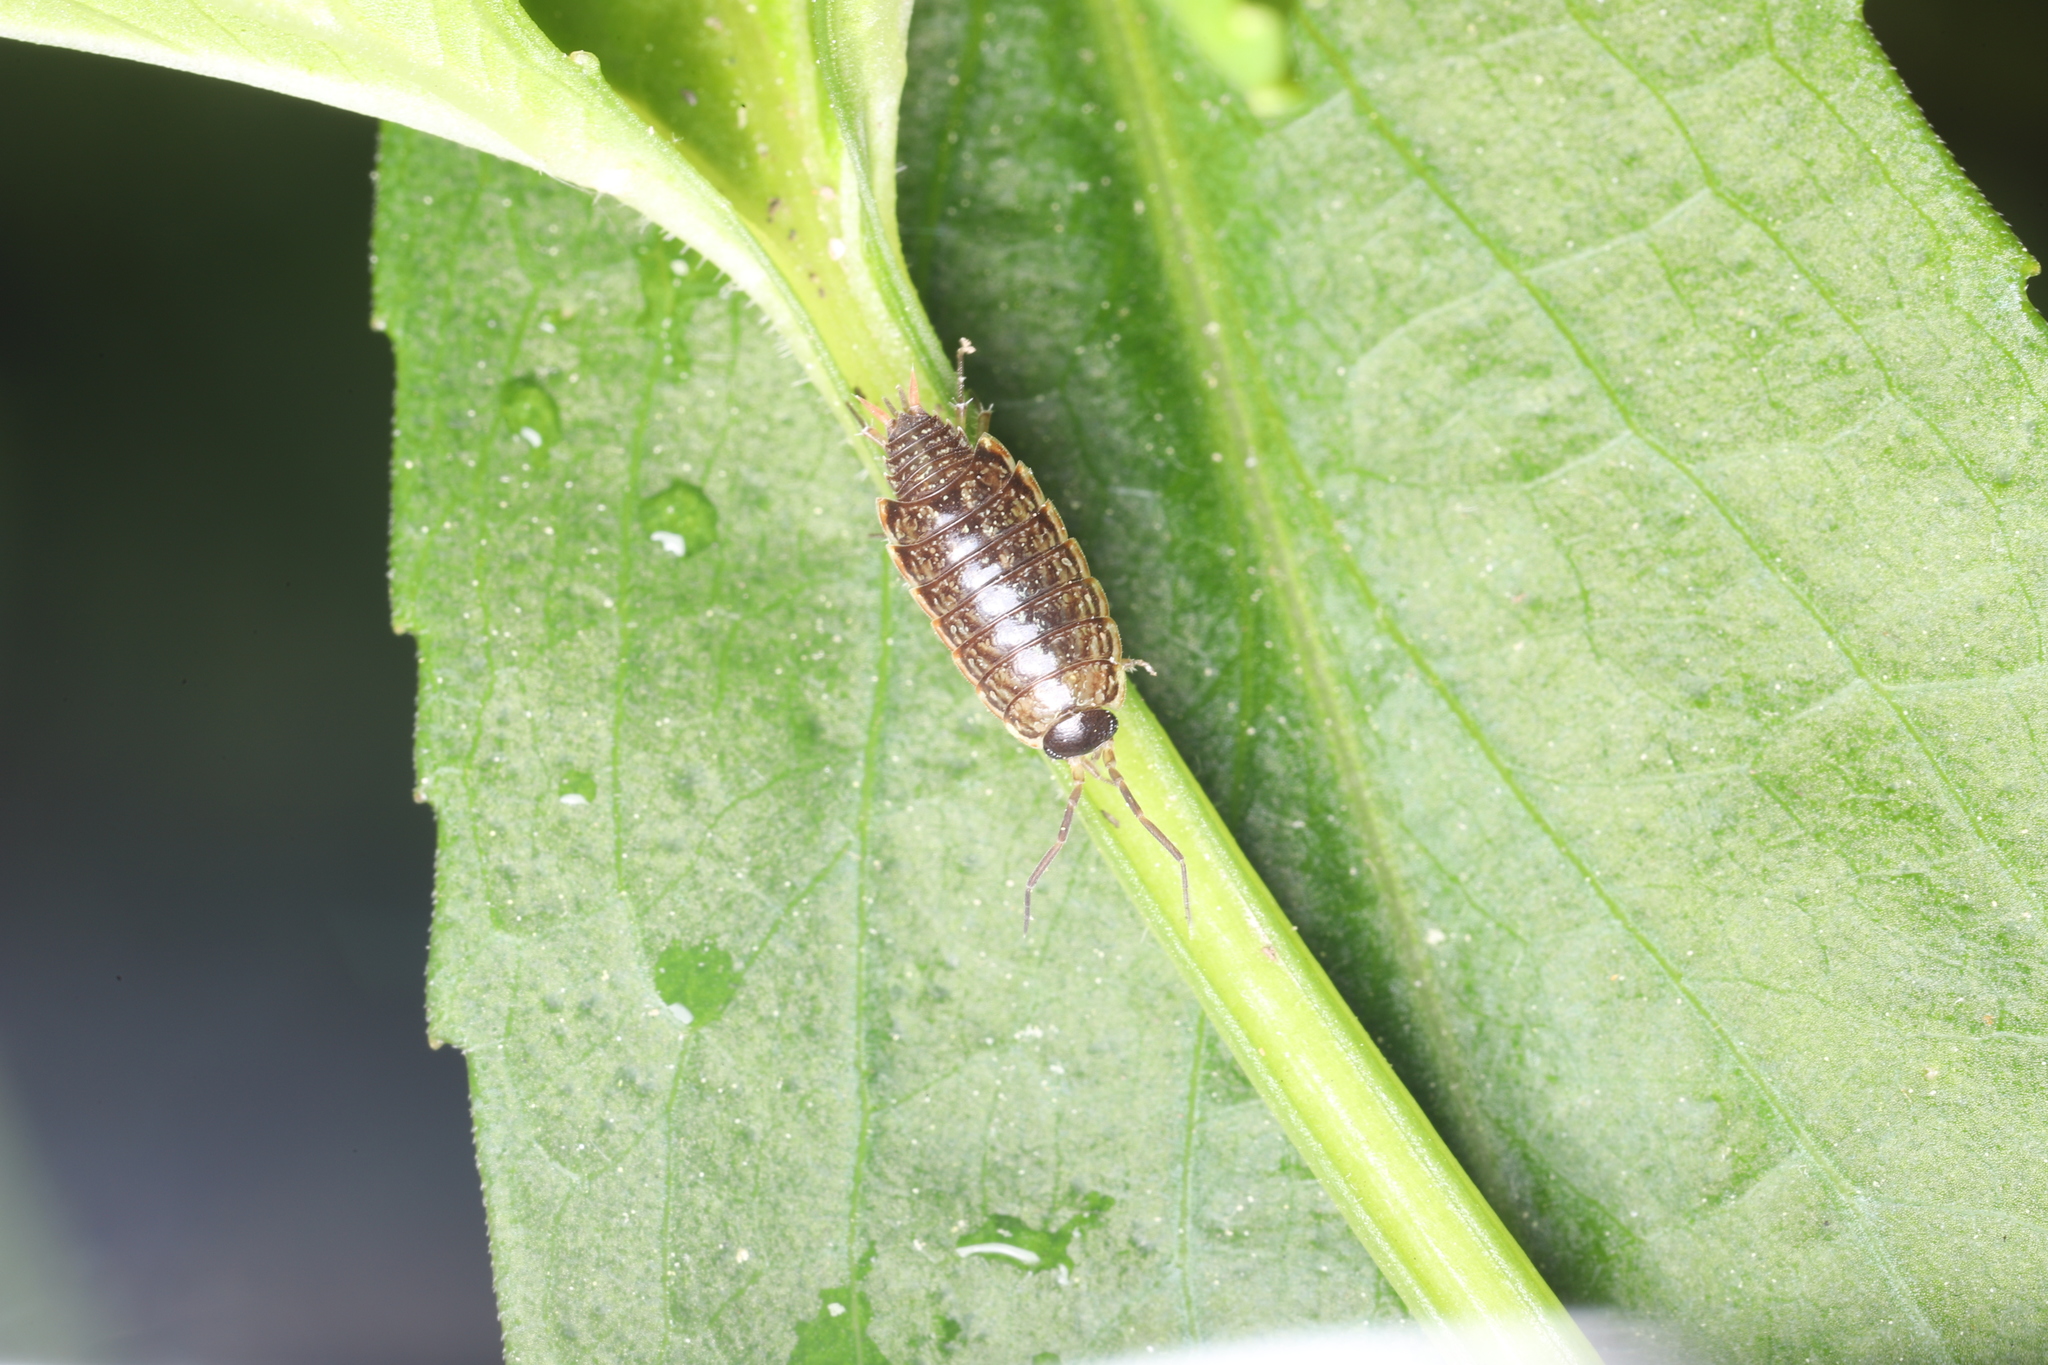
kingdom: Animalia
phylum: Arthropoda
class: Malacostraca
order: Isopoda
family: Philosciidae
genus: Philoscia
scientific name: Philoscia muscorum
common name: Common striped woodlouse
